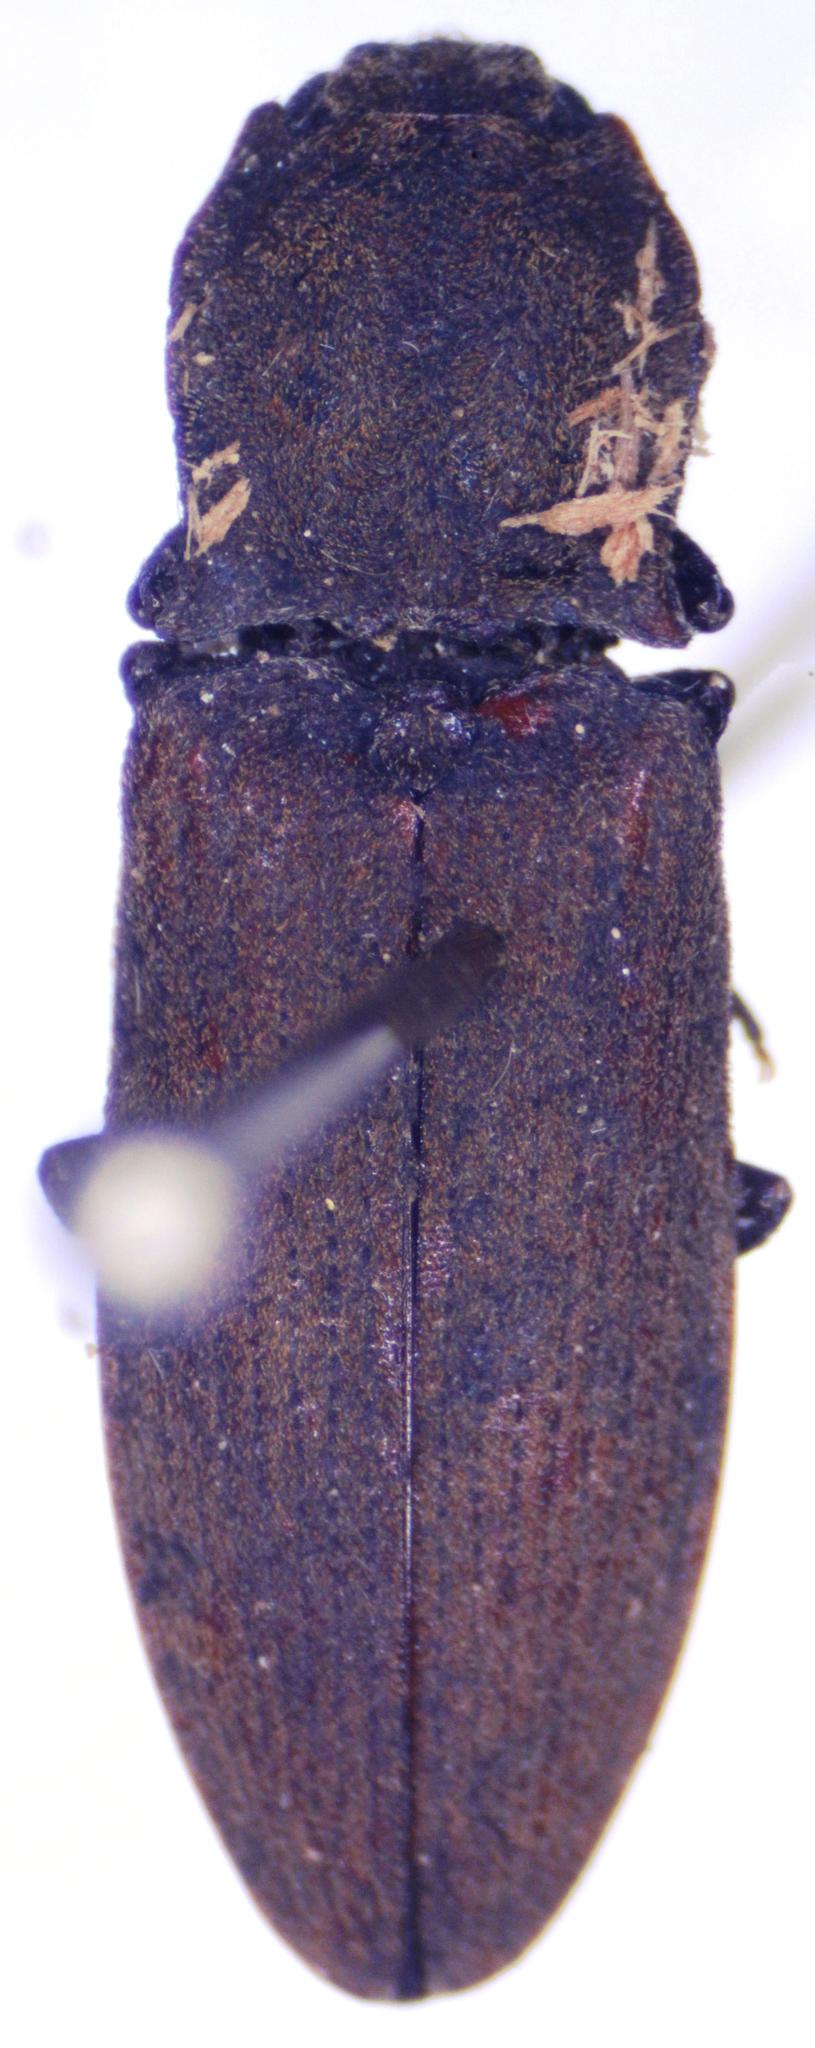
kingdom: Animalia
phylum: Arthropoda
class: Insecta
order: Coleoptera
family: Elateridae
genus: Agrypnus
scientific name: Agrypnus argillaceus
